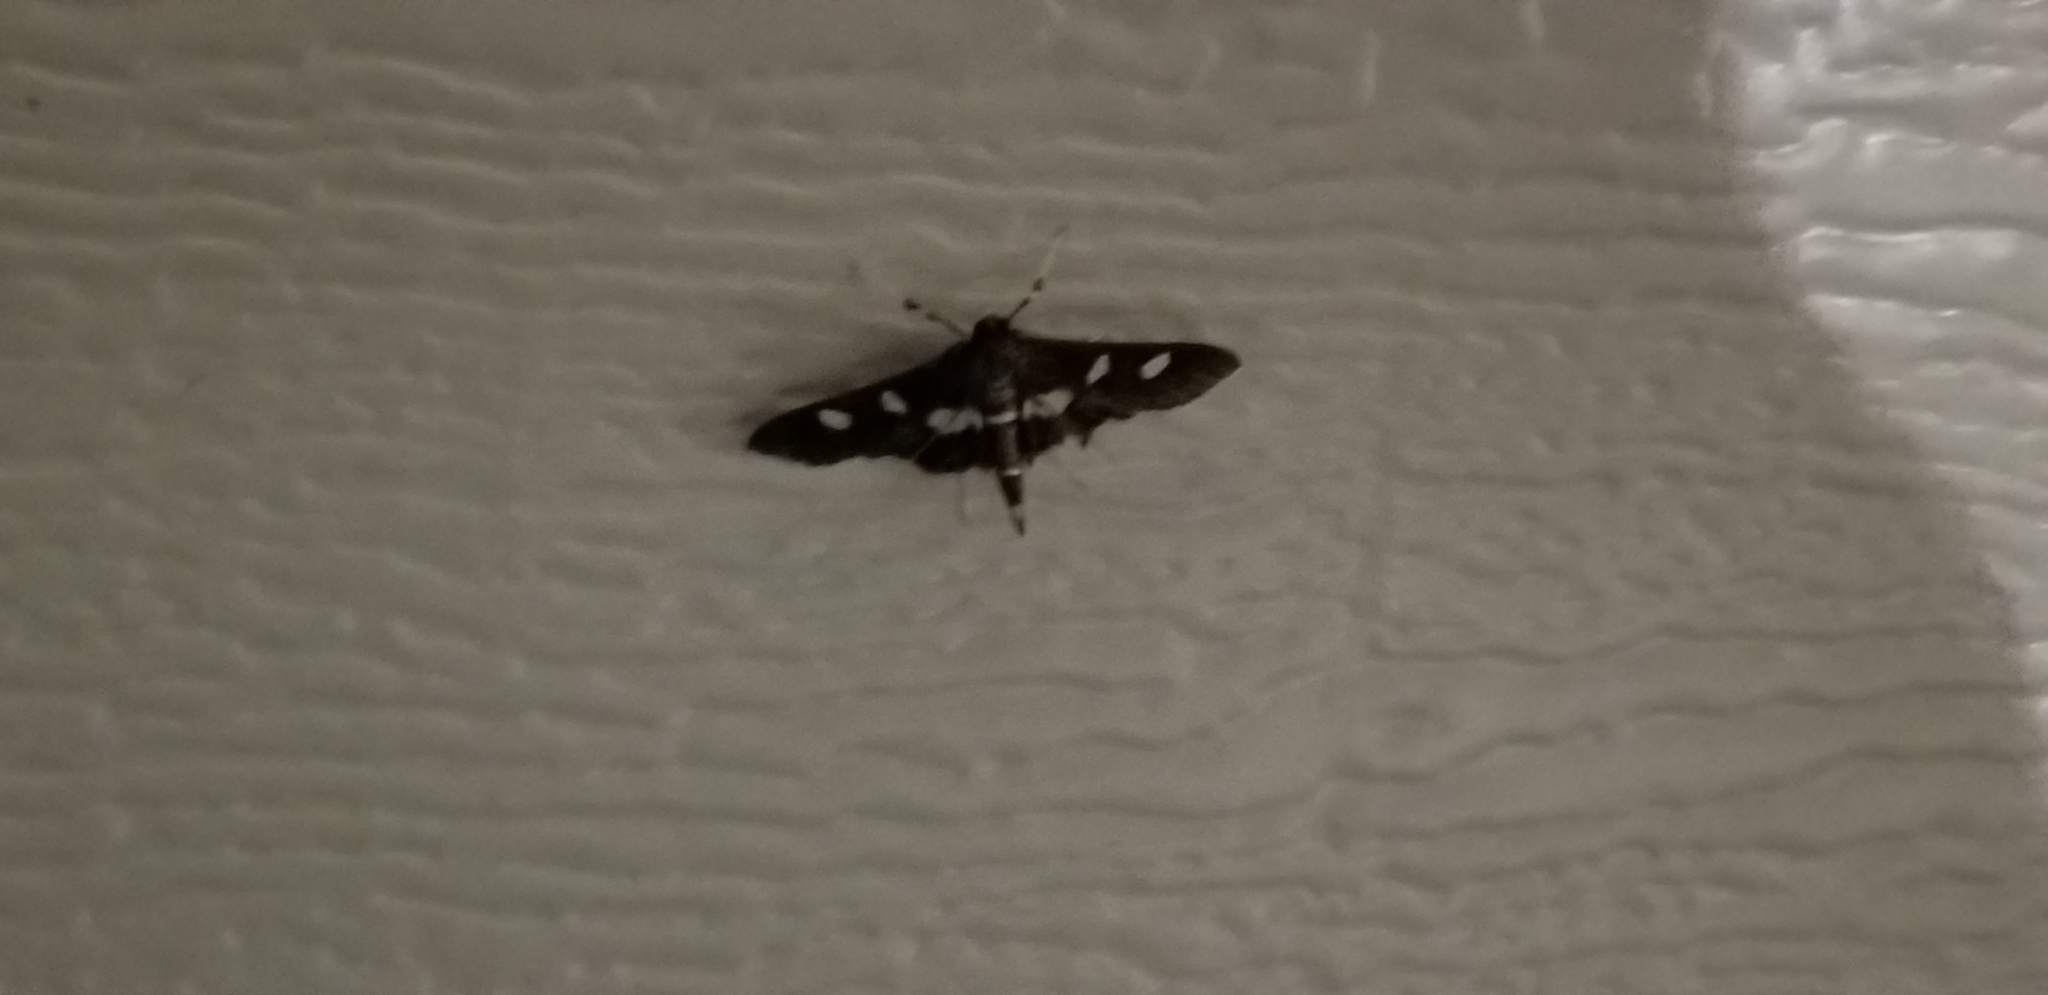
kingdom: Animalia
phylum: Arthropoda
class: Insecta
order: Lepidoptera
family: Crambidae
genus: Desmia
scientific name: Desmia
